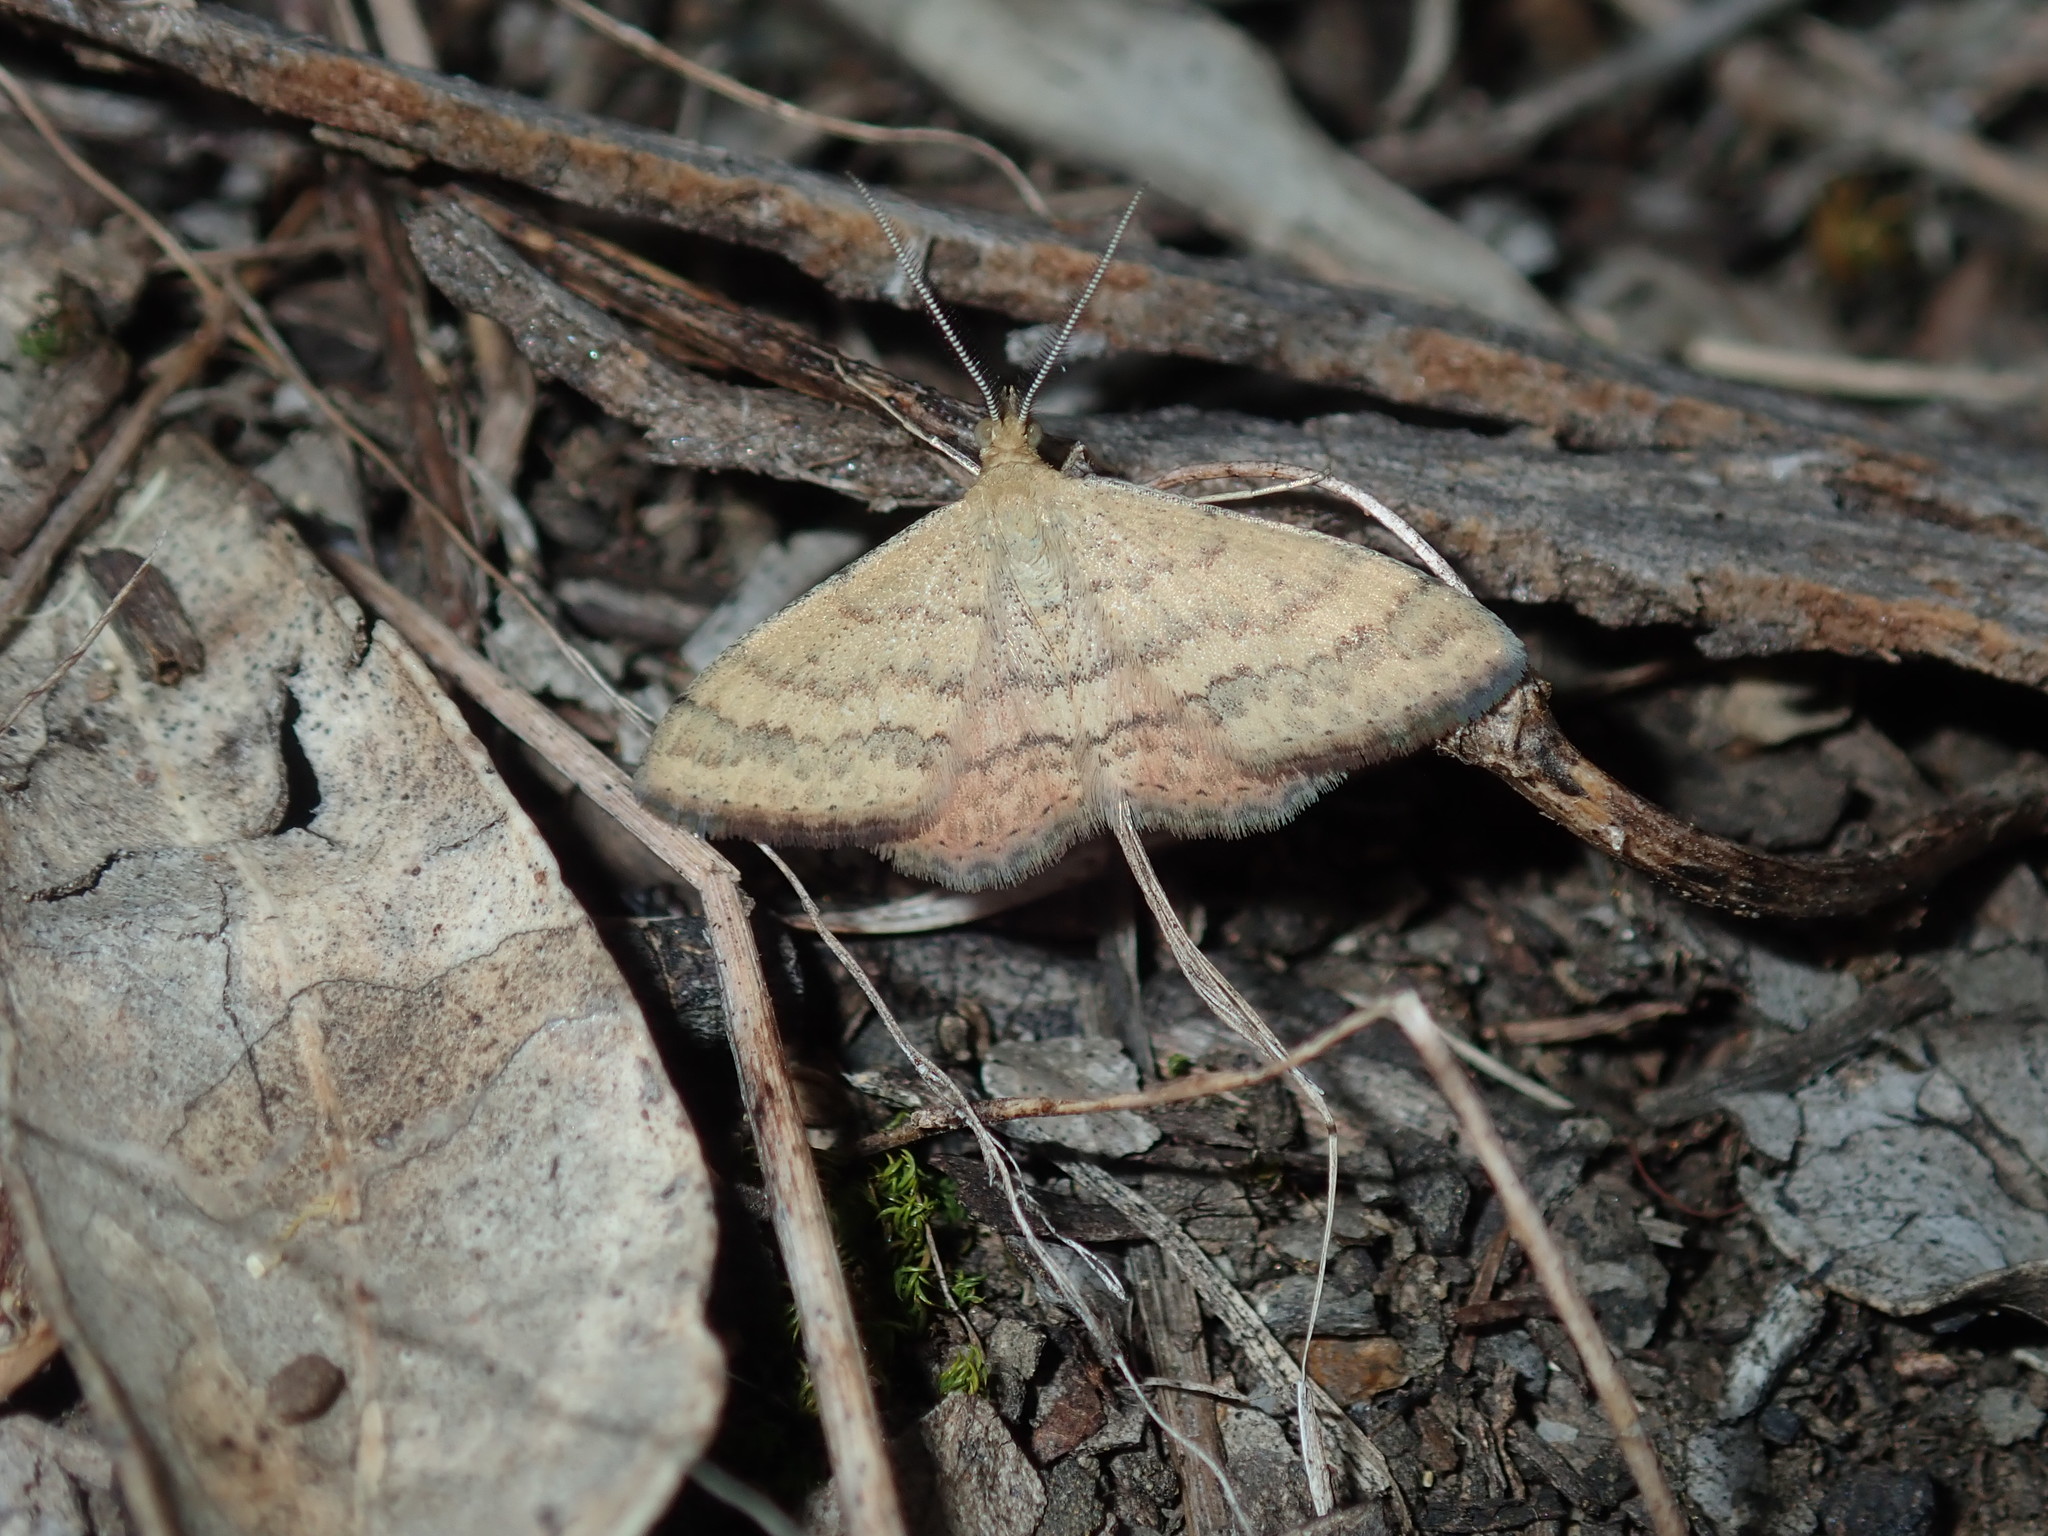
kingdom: Animalia
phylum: Arthropoda
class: Insecta
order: Lepidoptera
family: Geometridae
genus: Scopula
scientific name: Scopula rubraria
